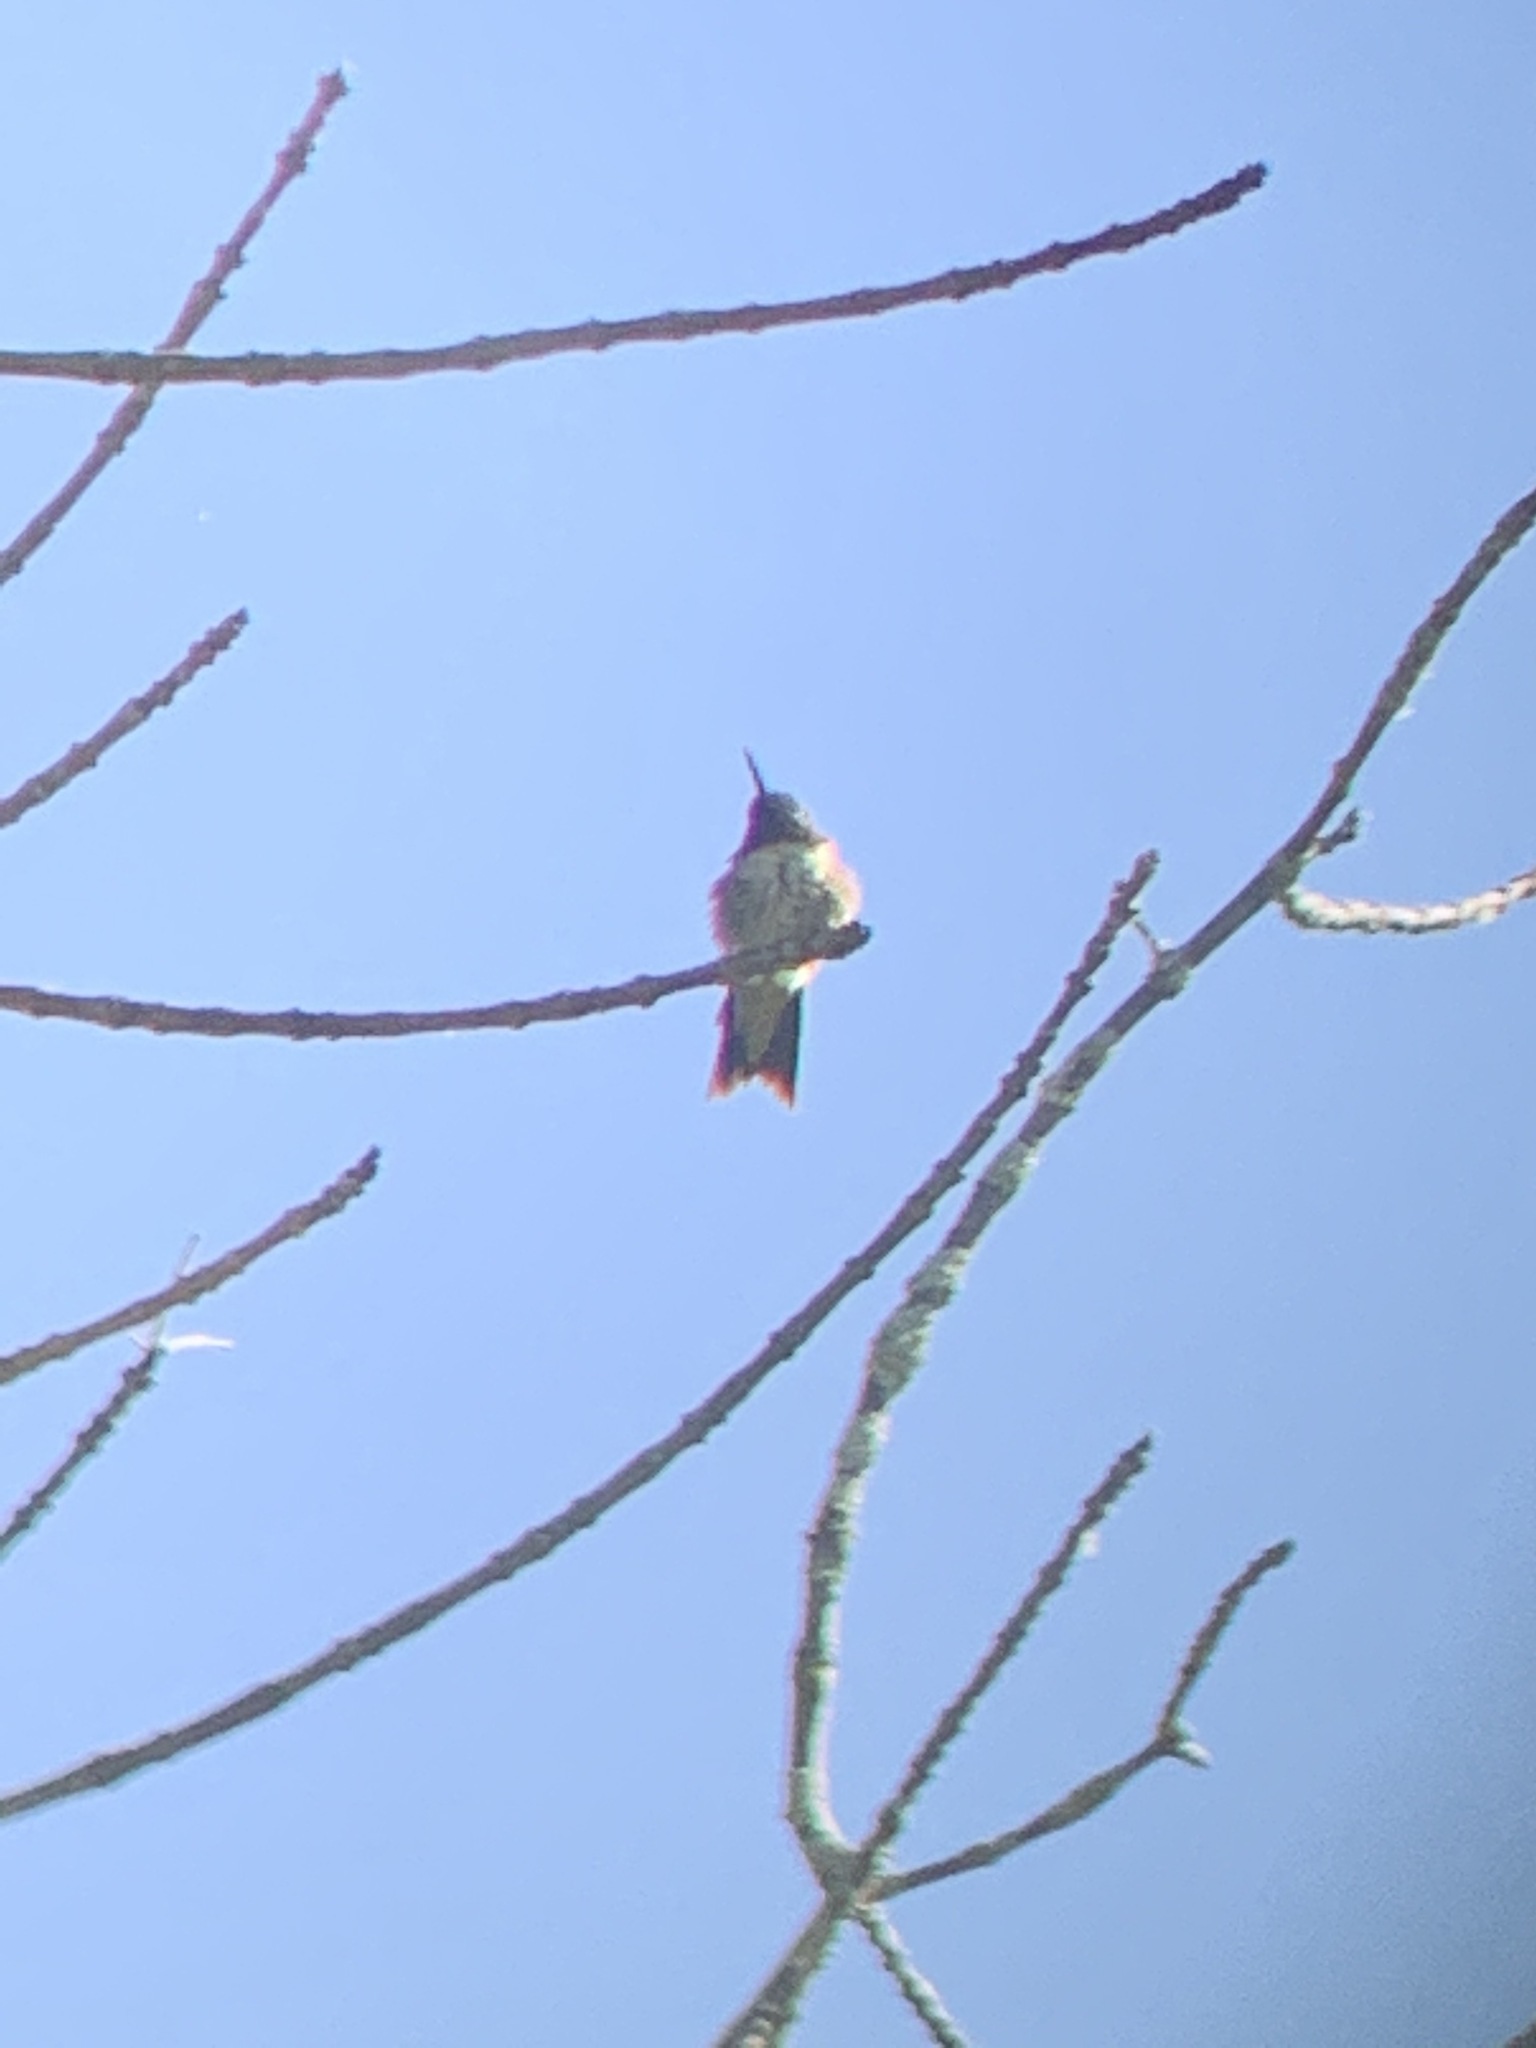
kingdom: Animalia
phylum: Chordata
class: Aves
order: Apodiformes
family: Trochilidae
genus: Archilochus
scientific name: Archilochus colubris
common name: Ruby-throated hummingbird
